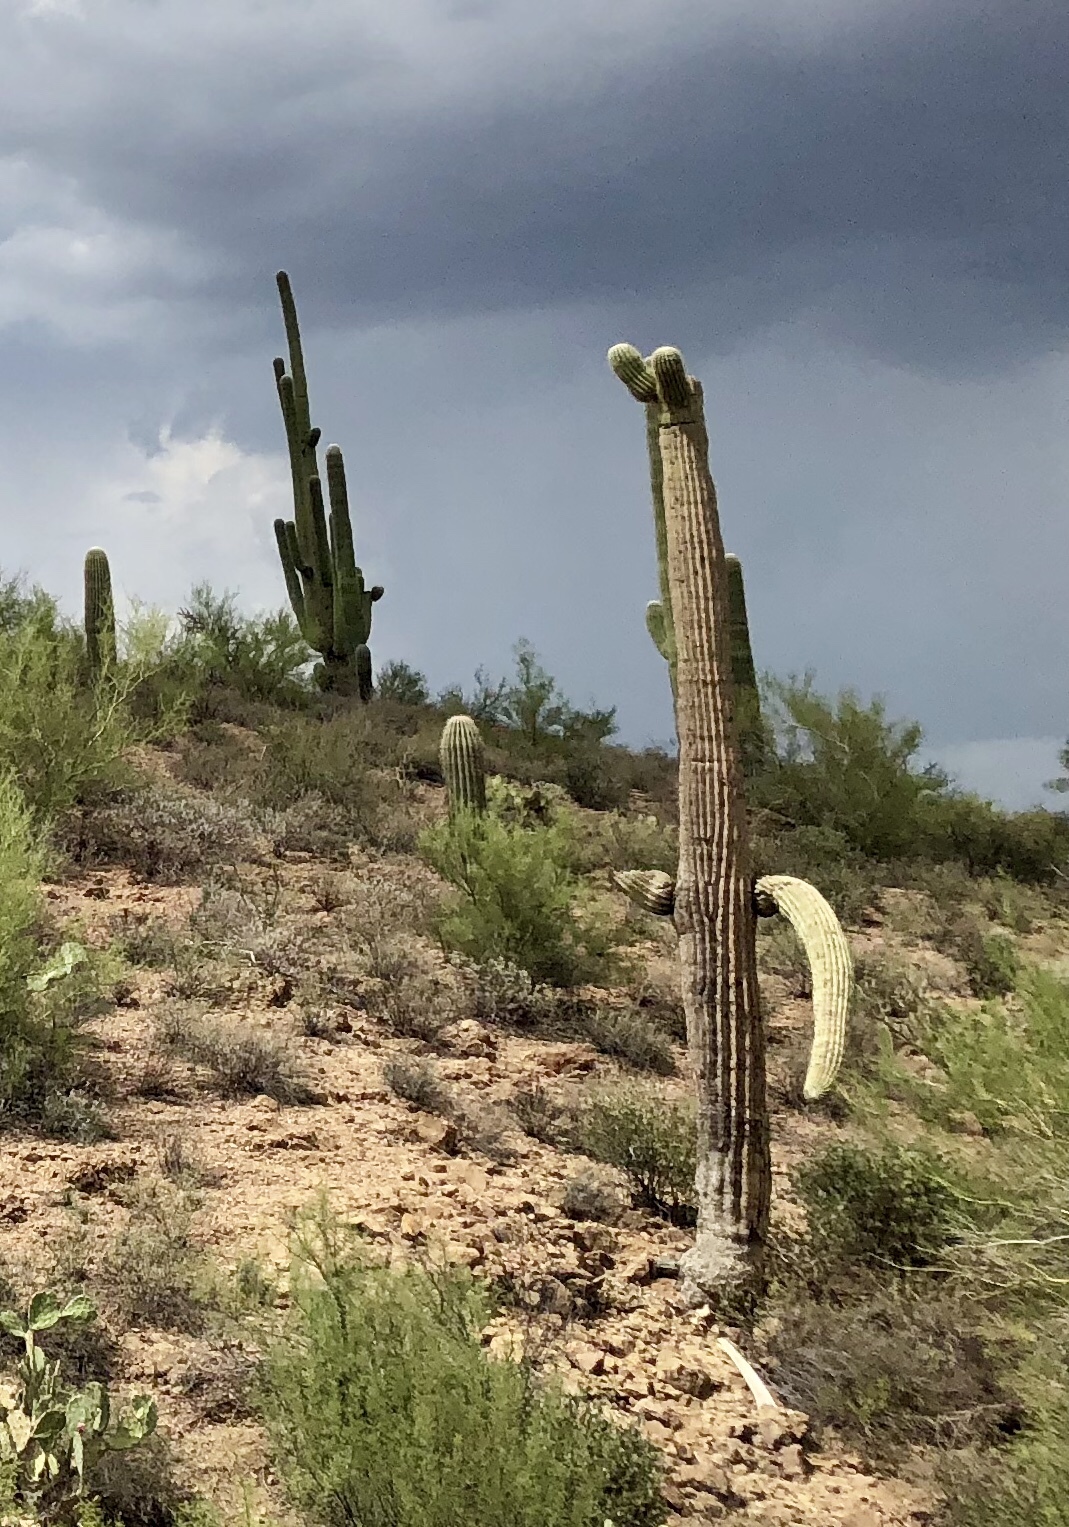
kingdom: Plantae
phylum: Tracheophyta
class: Magnoliopsida
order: Caryophyllales
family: Cactaceae
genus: Carnegiea
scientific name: Carnegiea gigantea
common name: Saguaro
